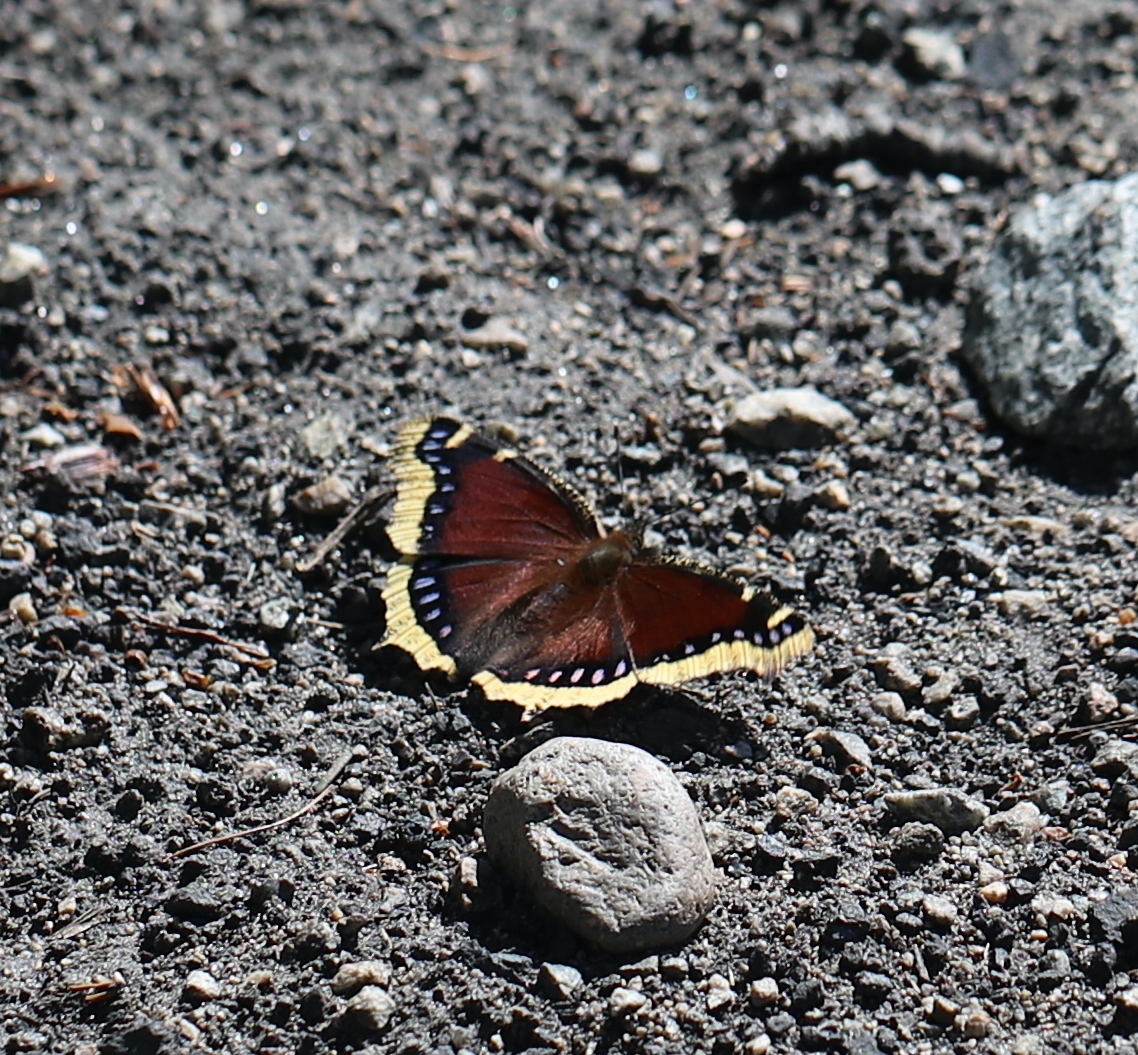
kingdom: Animalia
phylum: Arthropoda
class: Insecta
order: Lepidoptera
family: Nymphalidae
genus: Nymphalis
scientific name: Nymphalis antiopa
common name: Camberwell beauty
